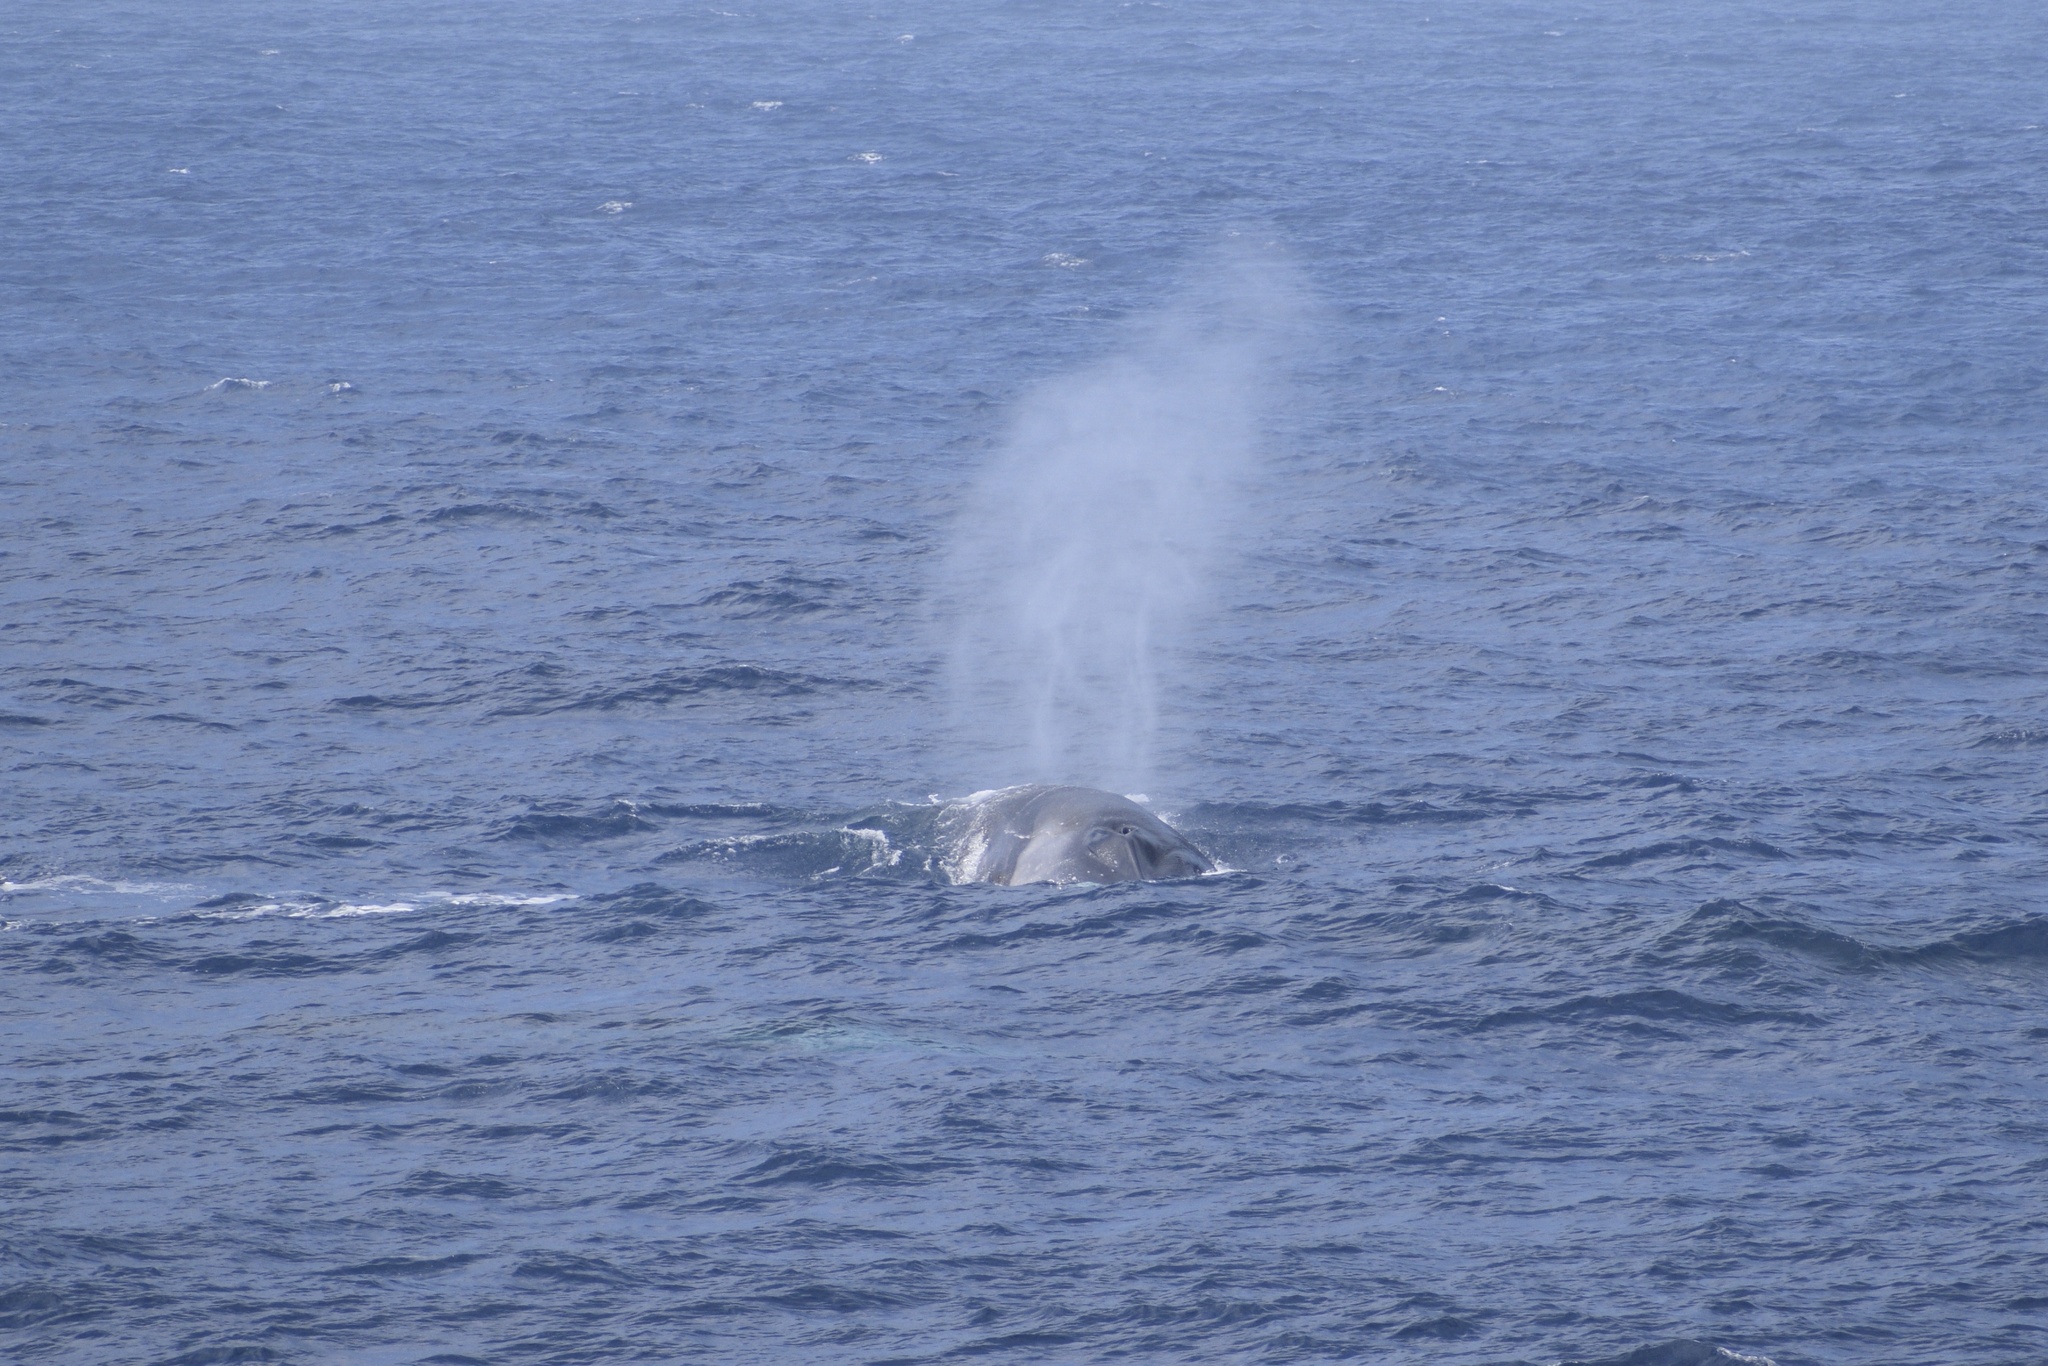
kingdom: Animalia
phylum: Chordata
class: Mammalia
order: Cetacea
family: Balaenopteridae
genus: Balaenoptera
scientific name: Balaenoptera physalus
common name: Fin whale
